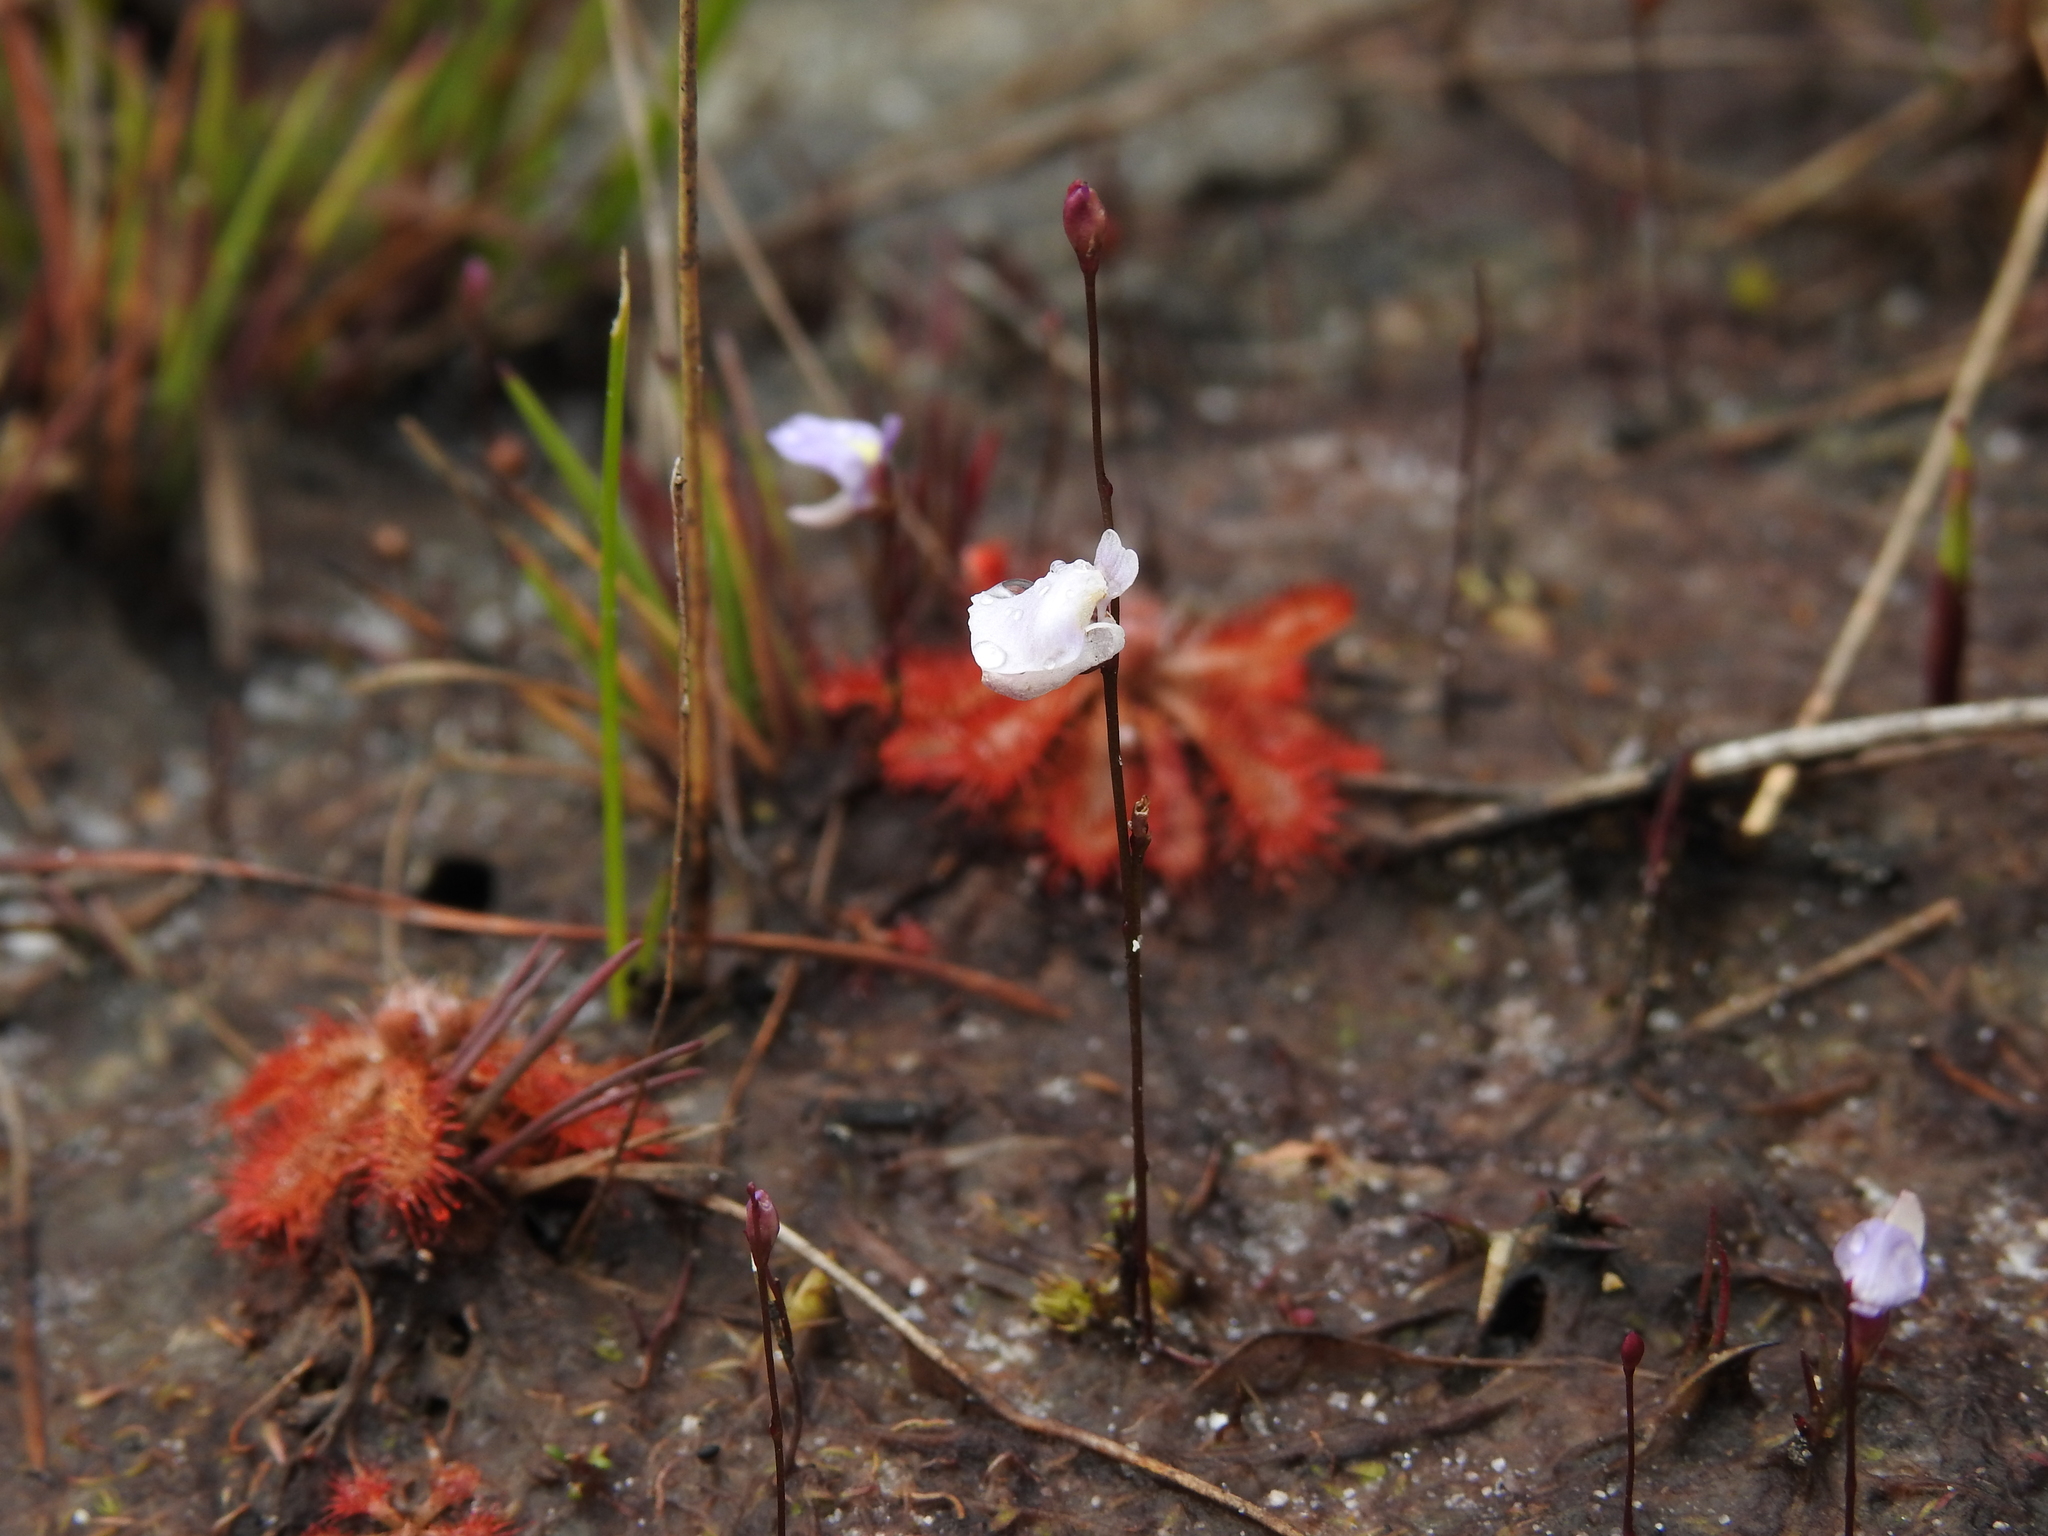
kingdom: Plantae
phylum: Tracheophyta
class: Magnoliopsida
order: Lamiales
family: Lentibulariaceae
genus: Utricularia
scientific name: Utricularia lateriflora
